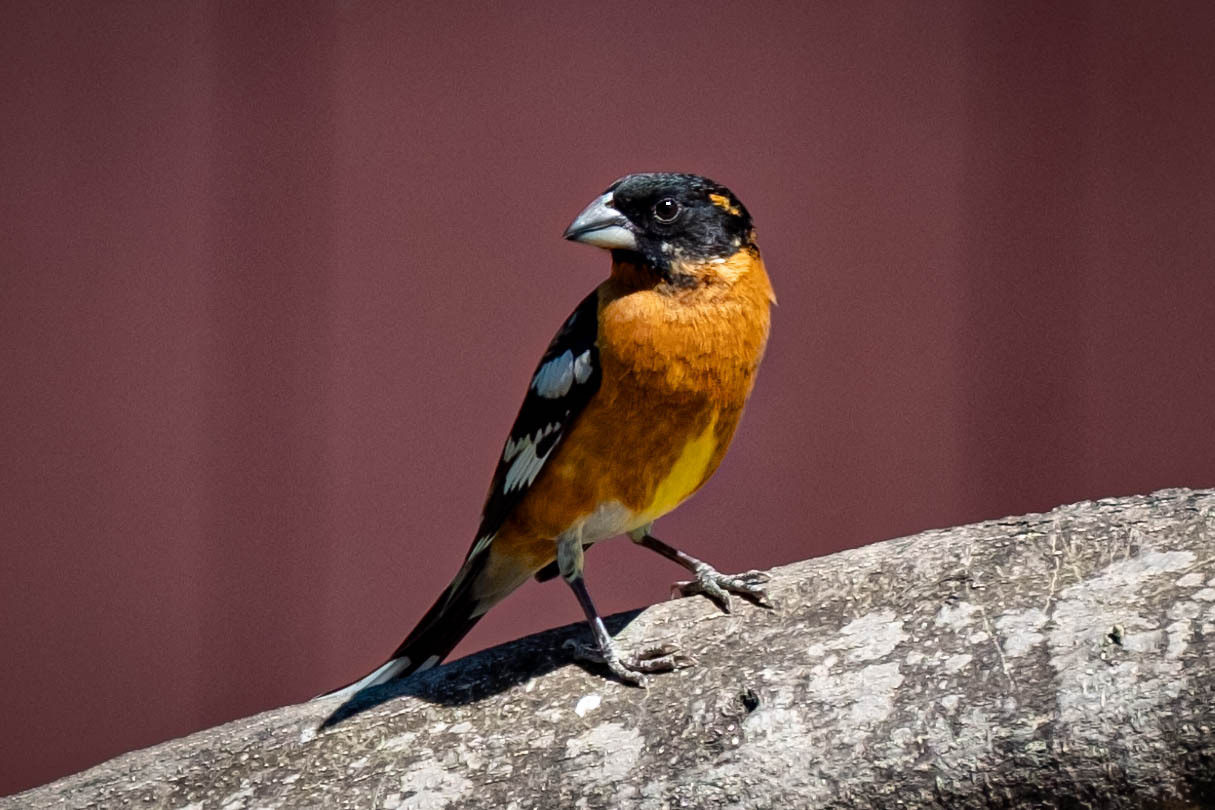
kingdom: Animalia
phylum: Chordata
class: Aves
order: Passeriformes
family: Cardinalidae
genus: Pheucticus
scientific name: Pheucticus melanocephalus
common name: Black-headed grosbeak
